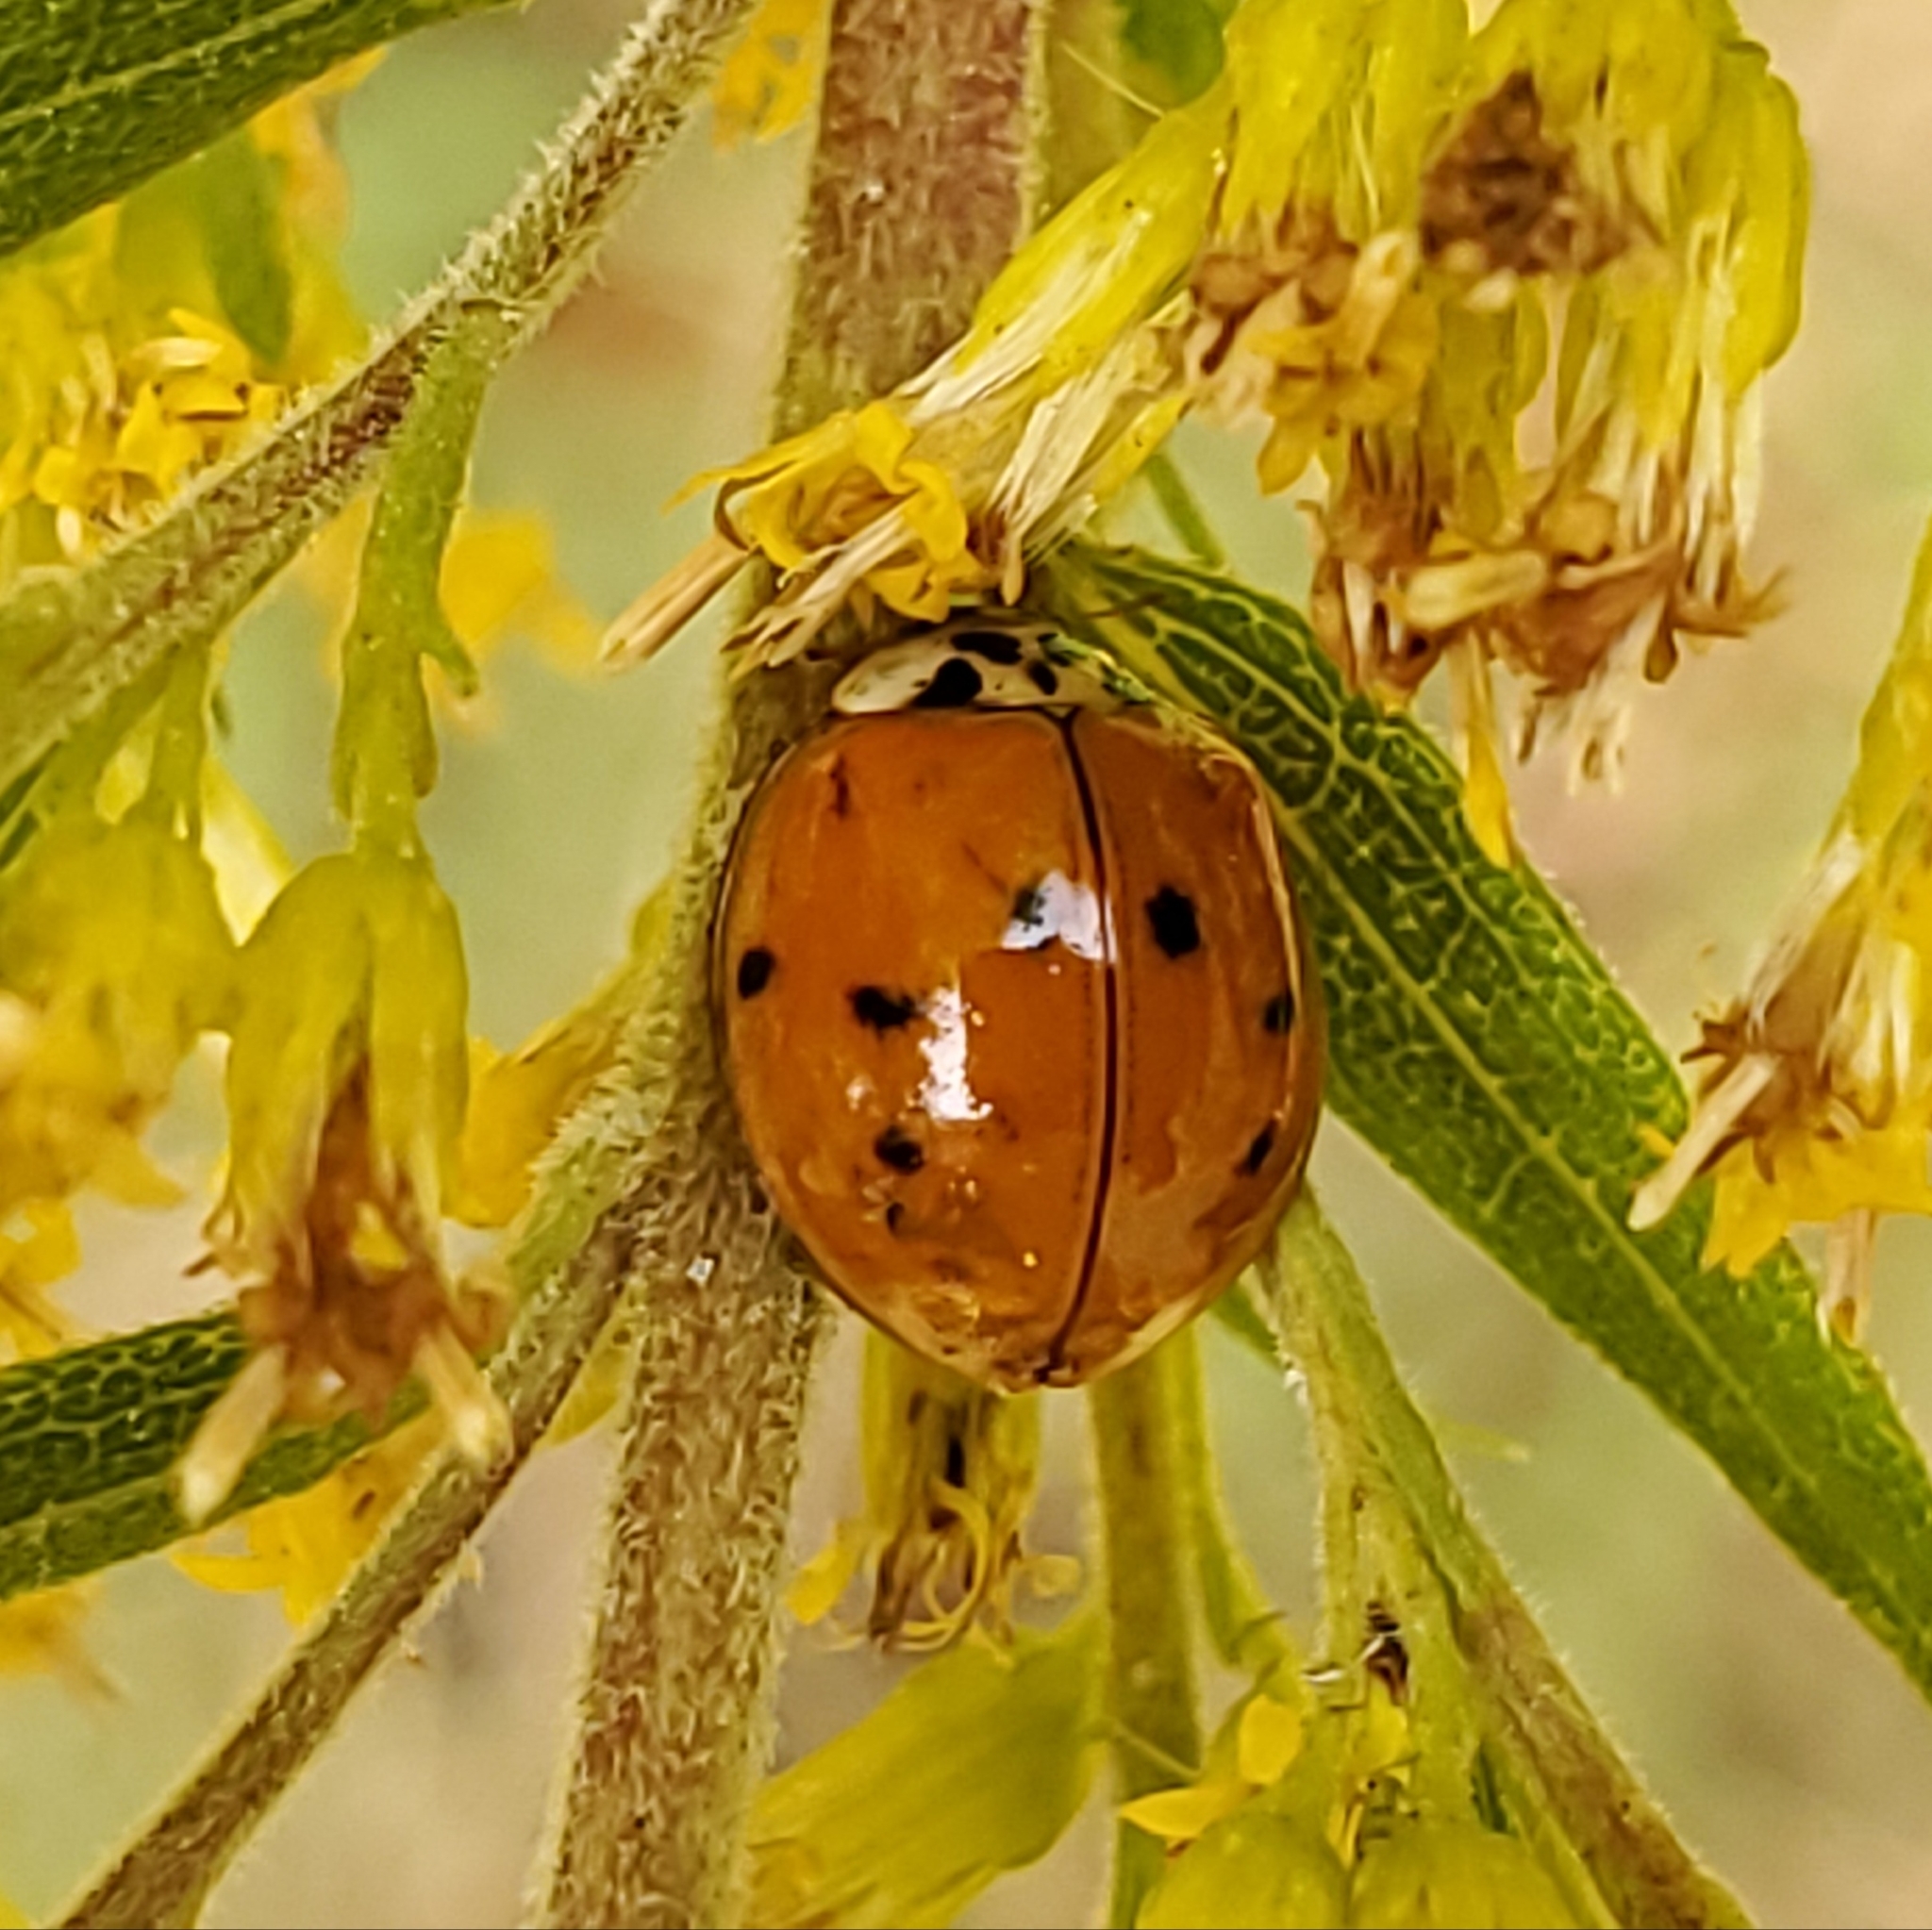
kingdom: Animalia
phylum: Arthropoda
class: Insecta
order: Coleoptera
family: Coccinellidae
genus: Harmonia
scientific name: Harmonia axyridis
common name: Harlequin ladybird
